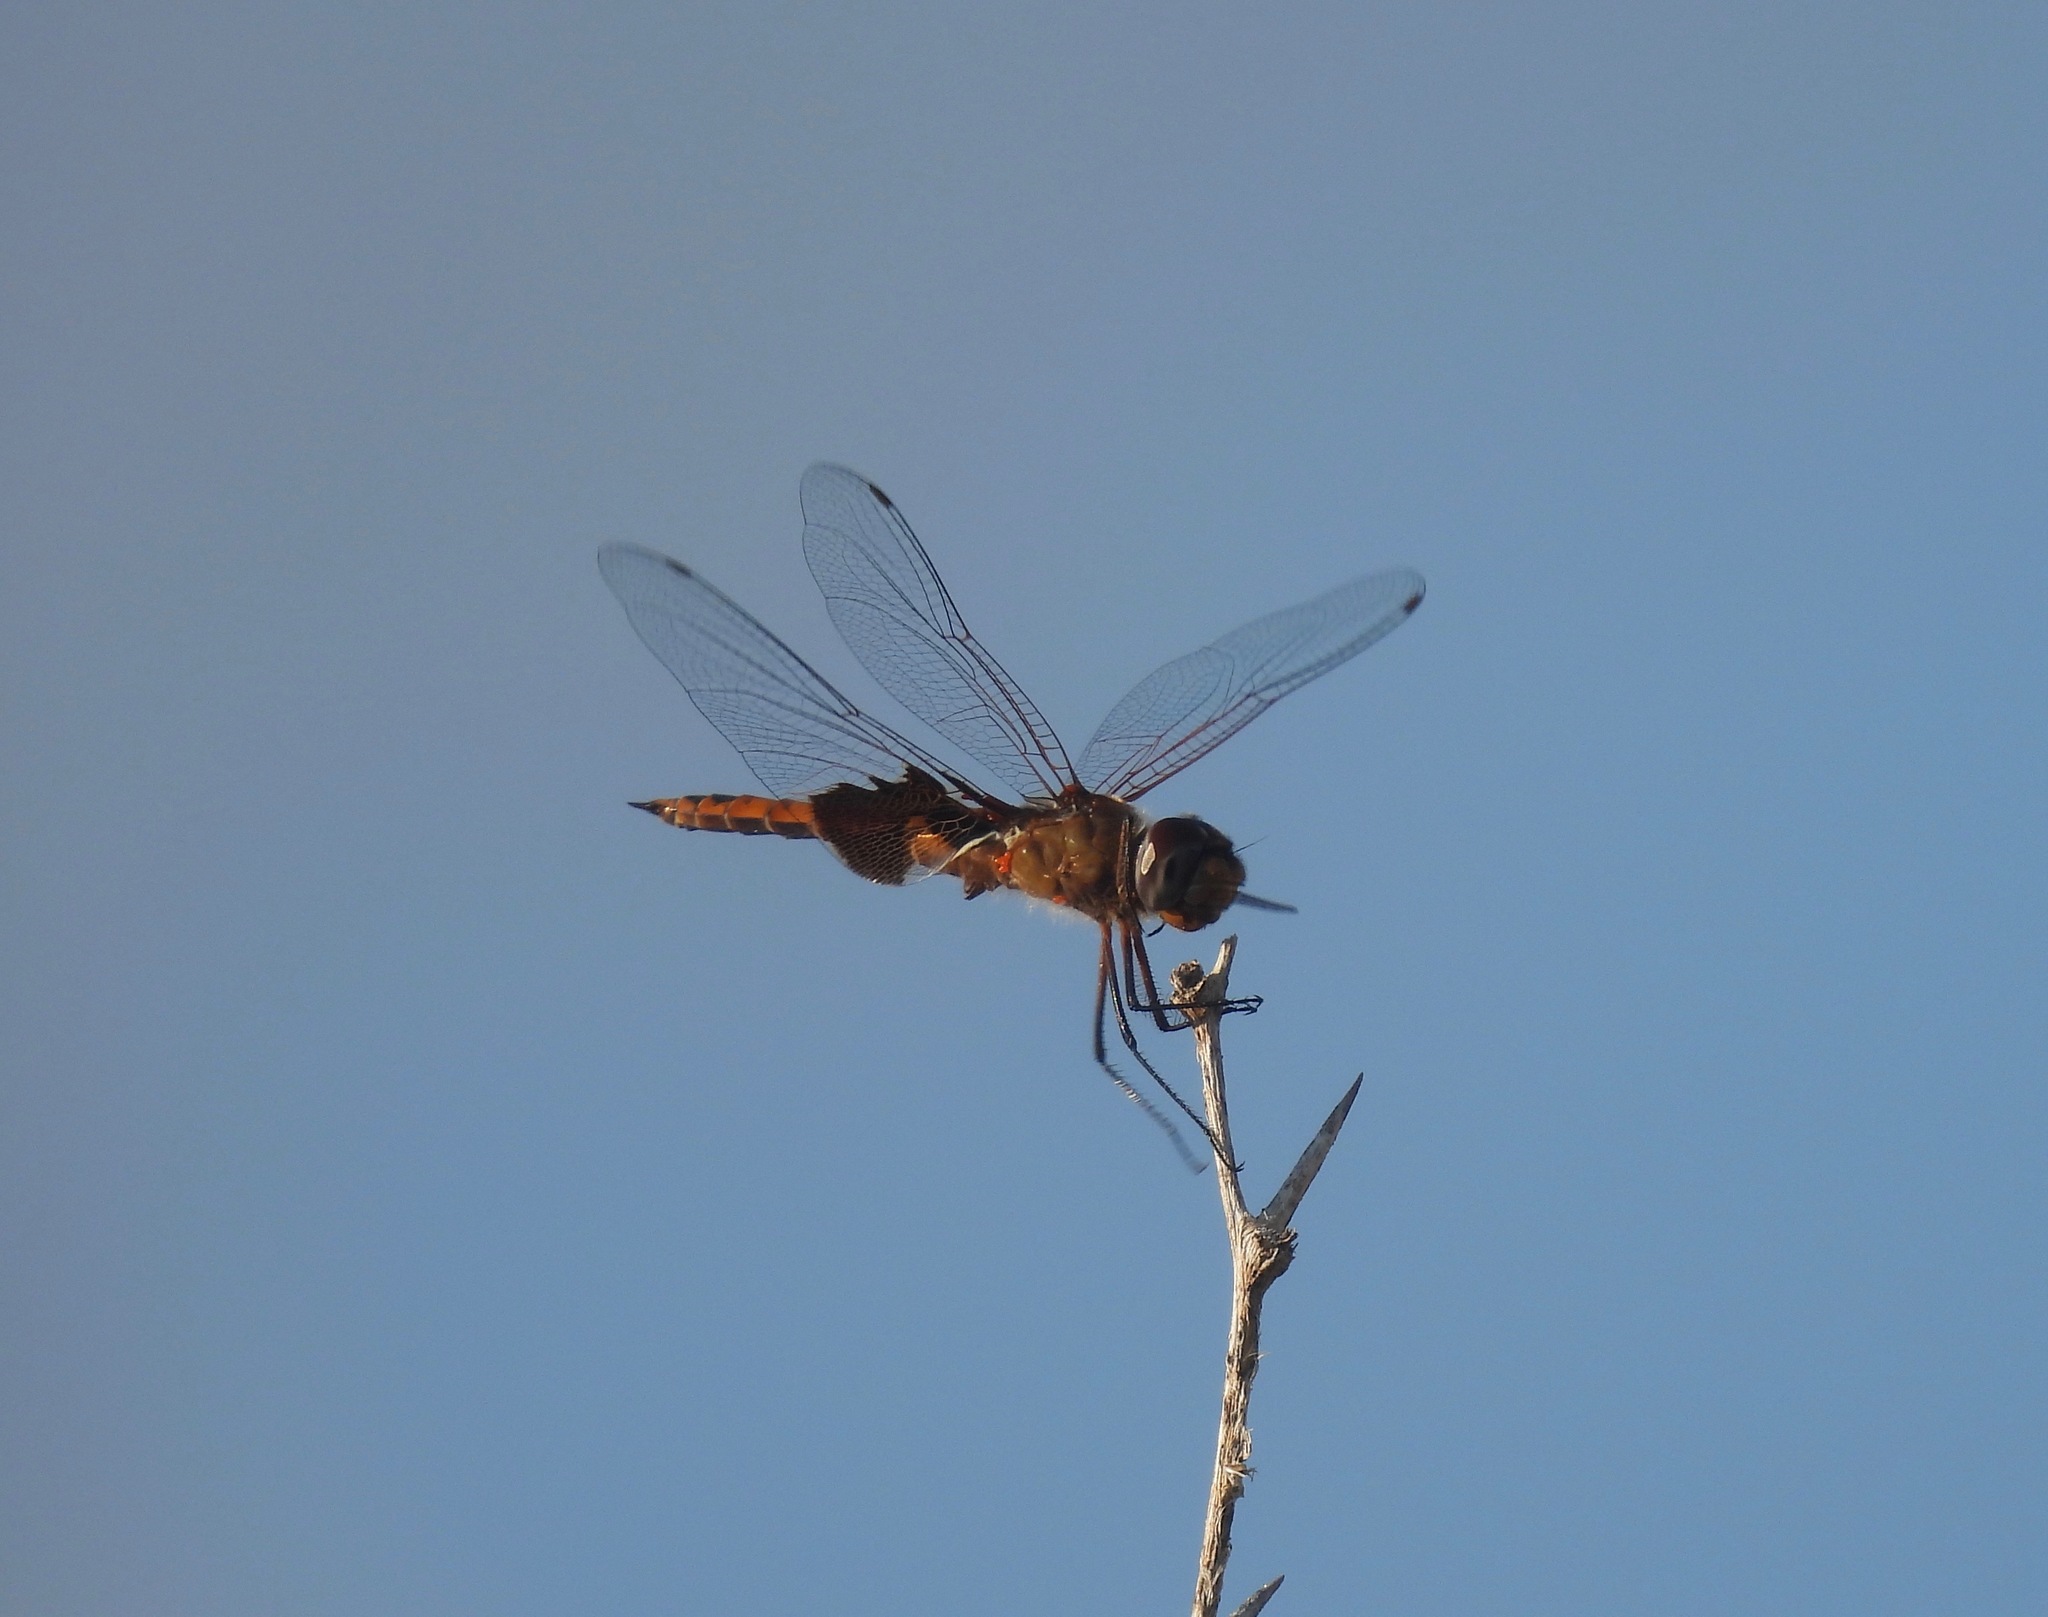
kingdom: Animalia
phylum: Arthropoda
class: Insecta
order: Odonata
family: Libellulidae
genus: Tramea
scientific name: Tramea onusta
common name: Red saddlebags
